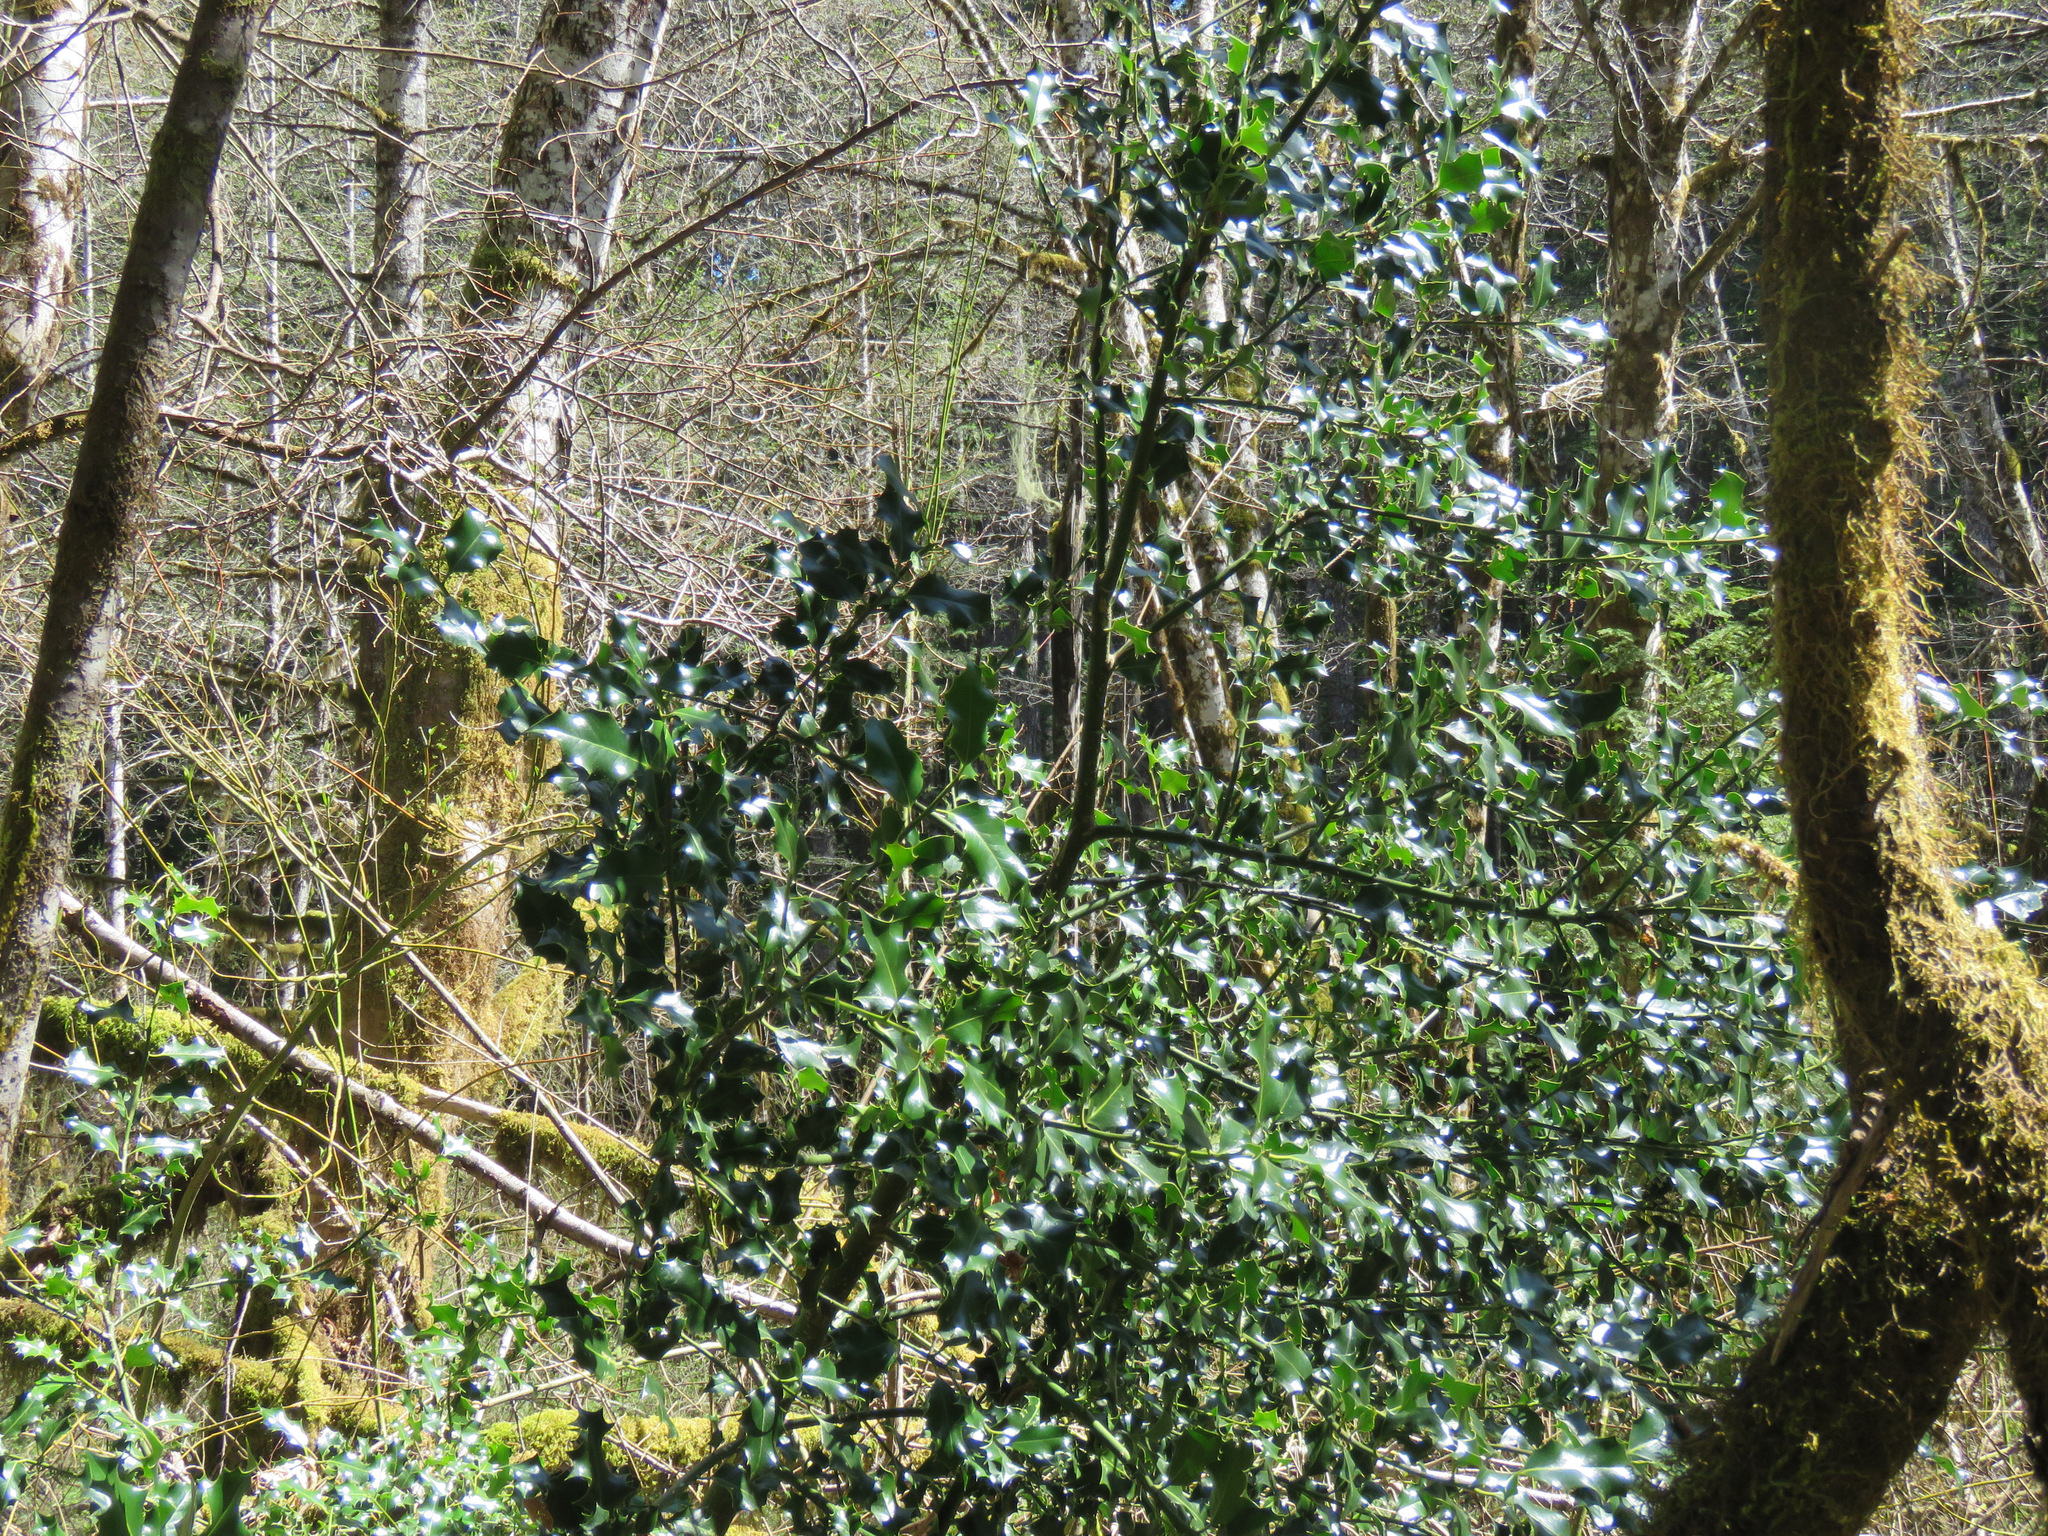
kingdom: Plantae
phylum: Tracheophyta
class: Magnoliopsida
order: Aquifoliales
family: Aquifoliaceae
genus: Ilex
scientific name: Ilex aquifolium
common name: English holly
